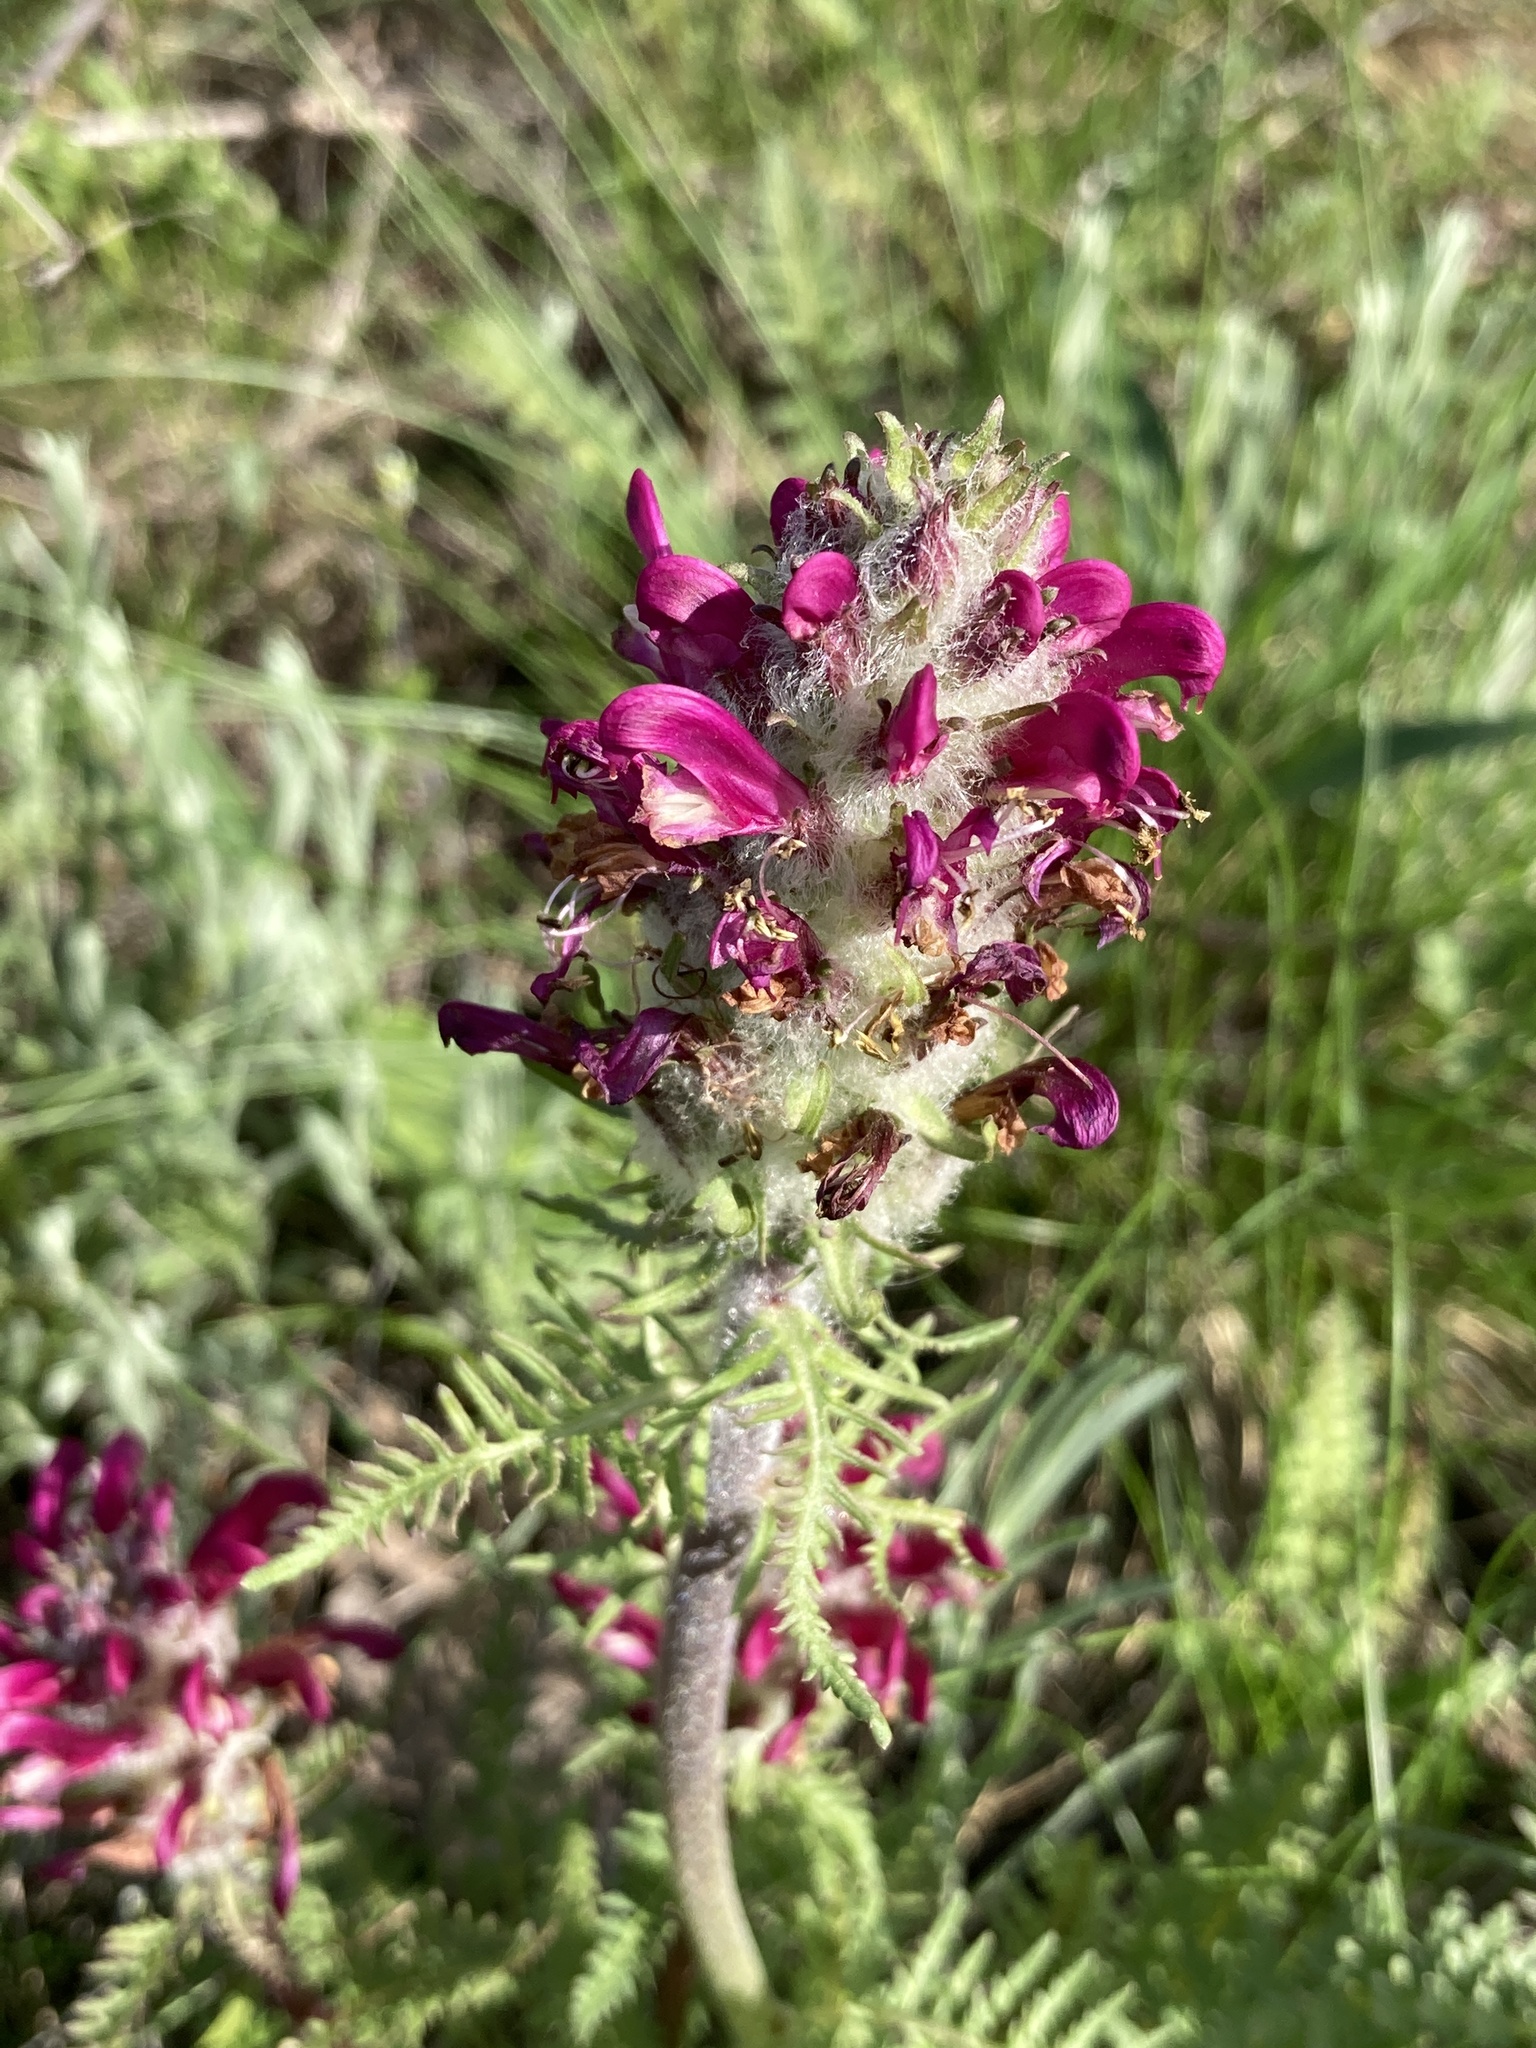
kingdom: Plantae
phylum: Tracheophyta
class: Magnoliopsida
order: Lamiales
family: Orobanchaceae
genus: Pedicularis
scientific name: Pedicularis dasystachys
